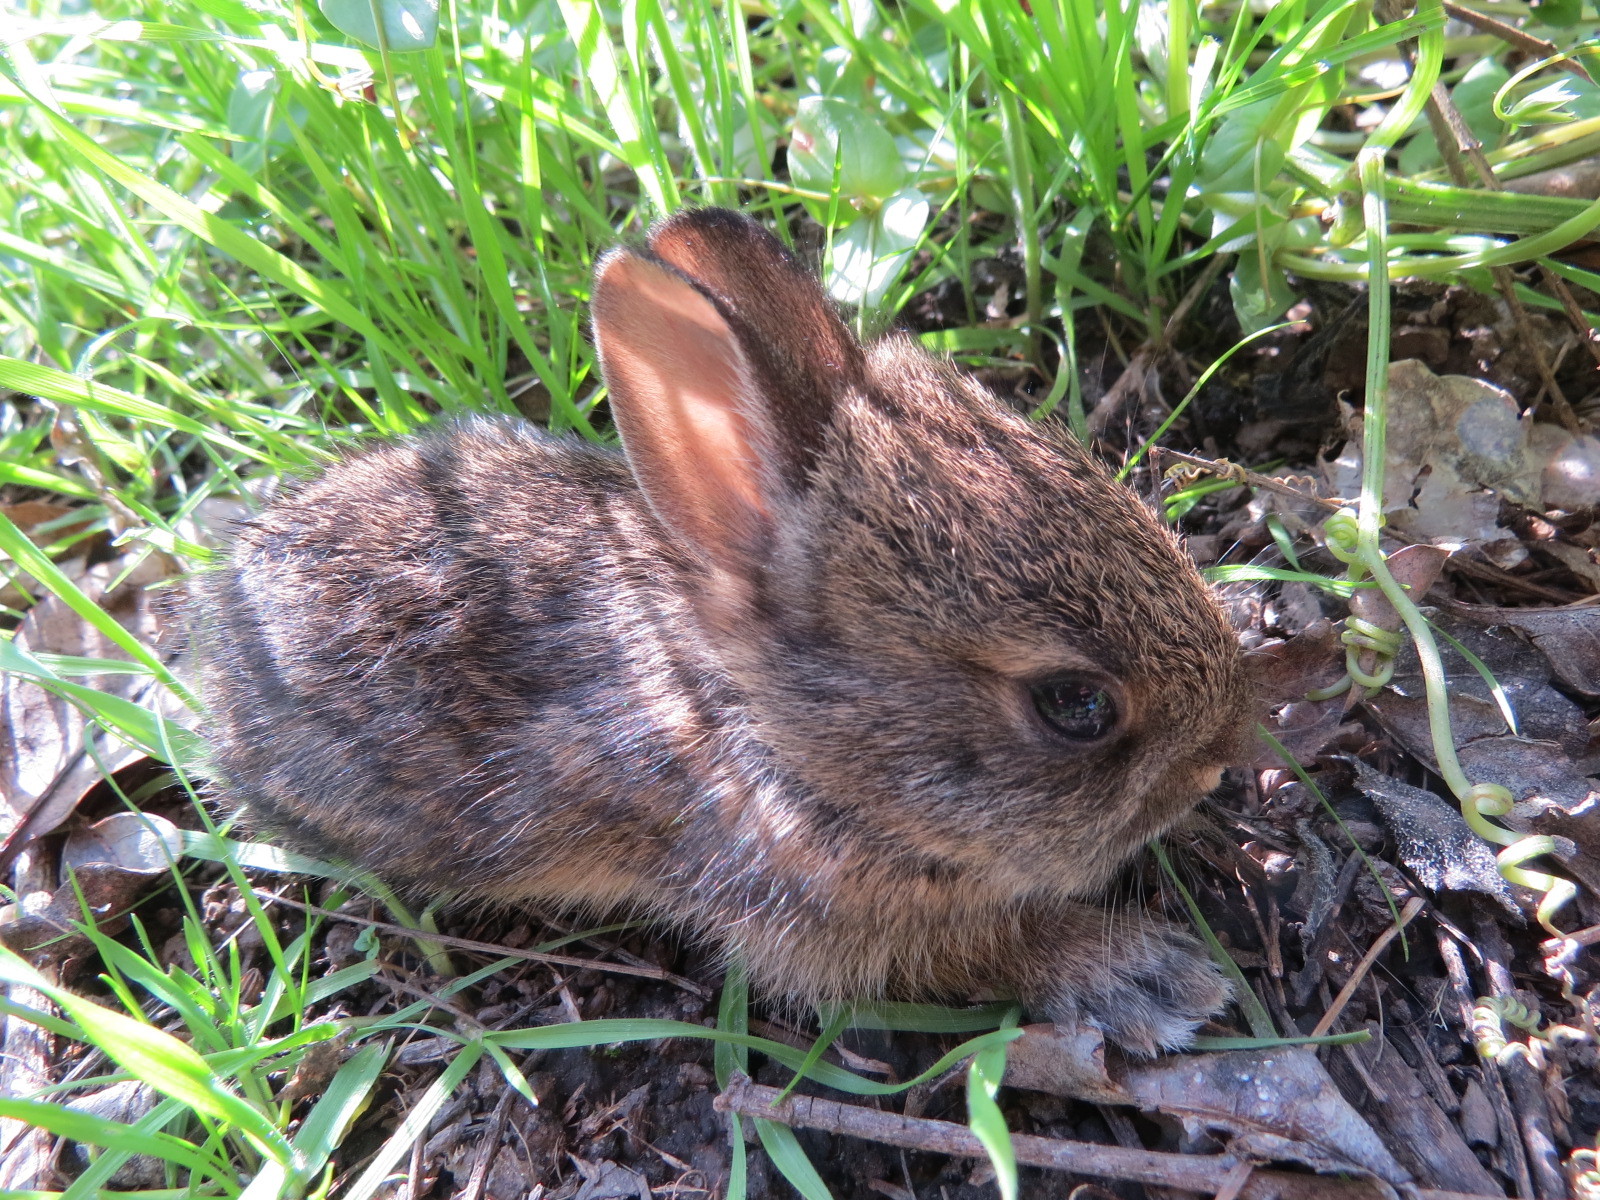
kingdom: Animalia
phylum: Chordata
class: Mammalia
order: Lagomorpha
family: Leporidae
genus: Sylvilagus
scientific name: Sylvilagus bachmani
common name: Brush rabbit
